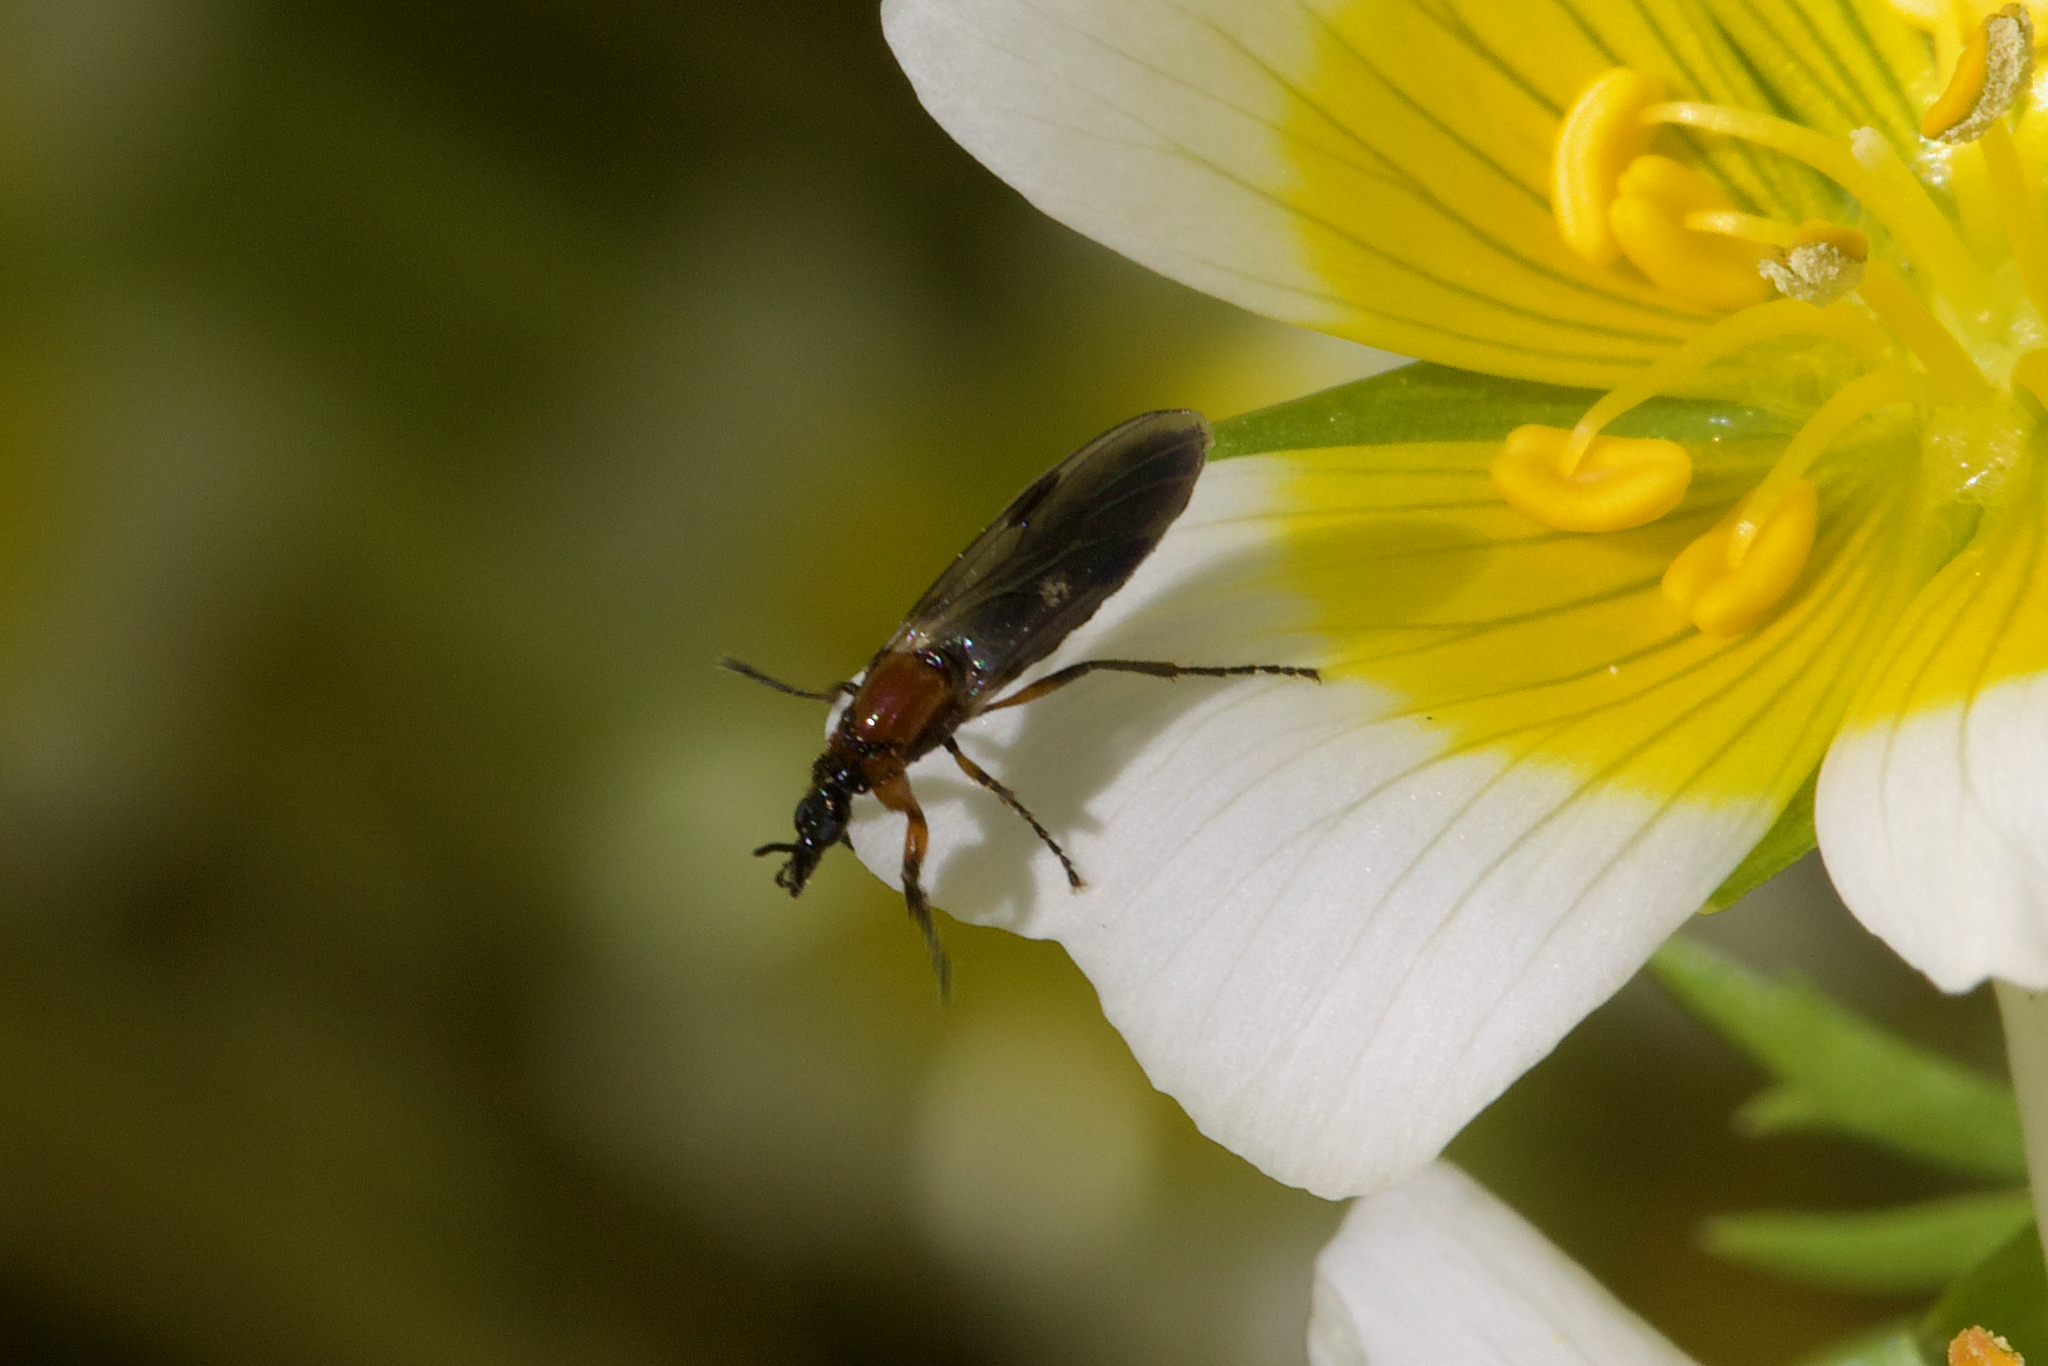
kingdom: Animalia
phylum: Arthropoda
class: Insecta
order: Diptera
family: Bibionidae
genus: Dilophus
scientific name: Dilophus strigilatus
